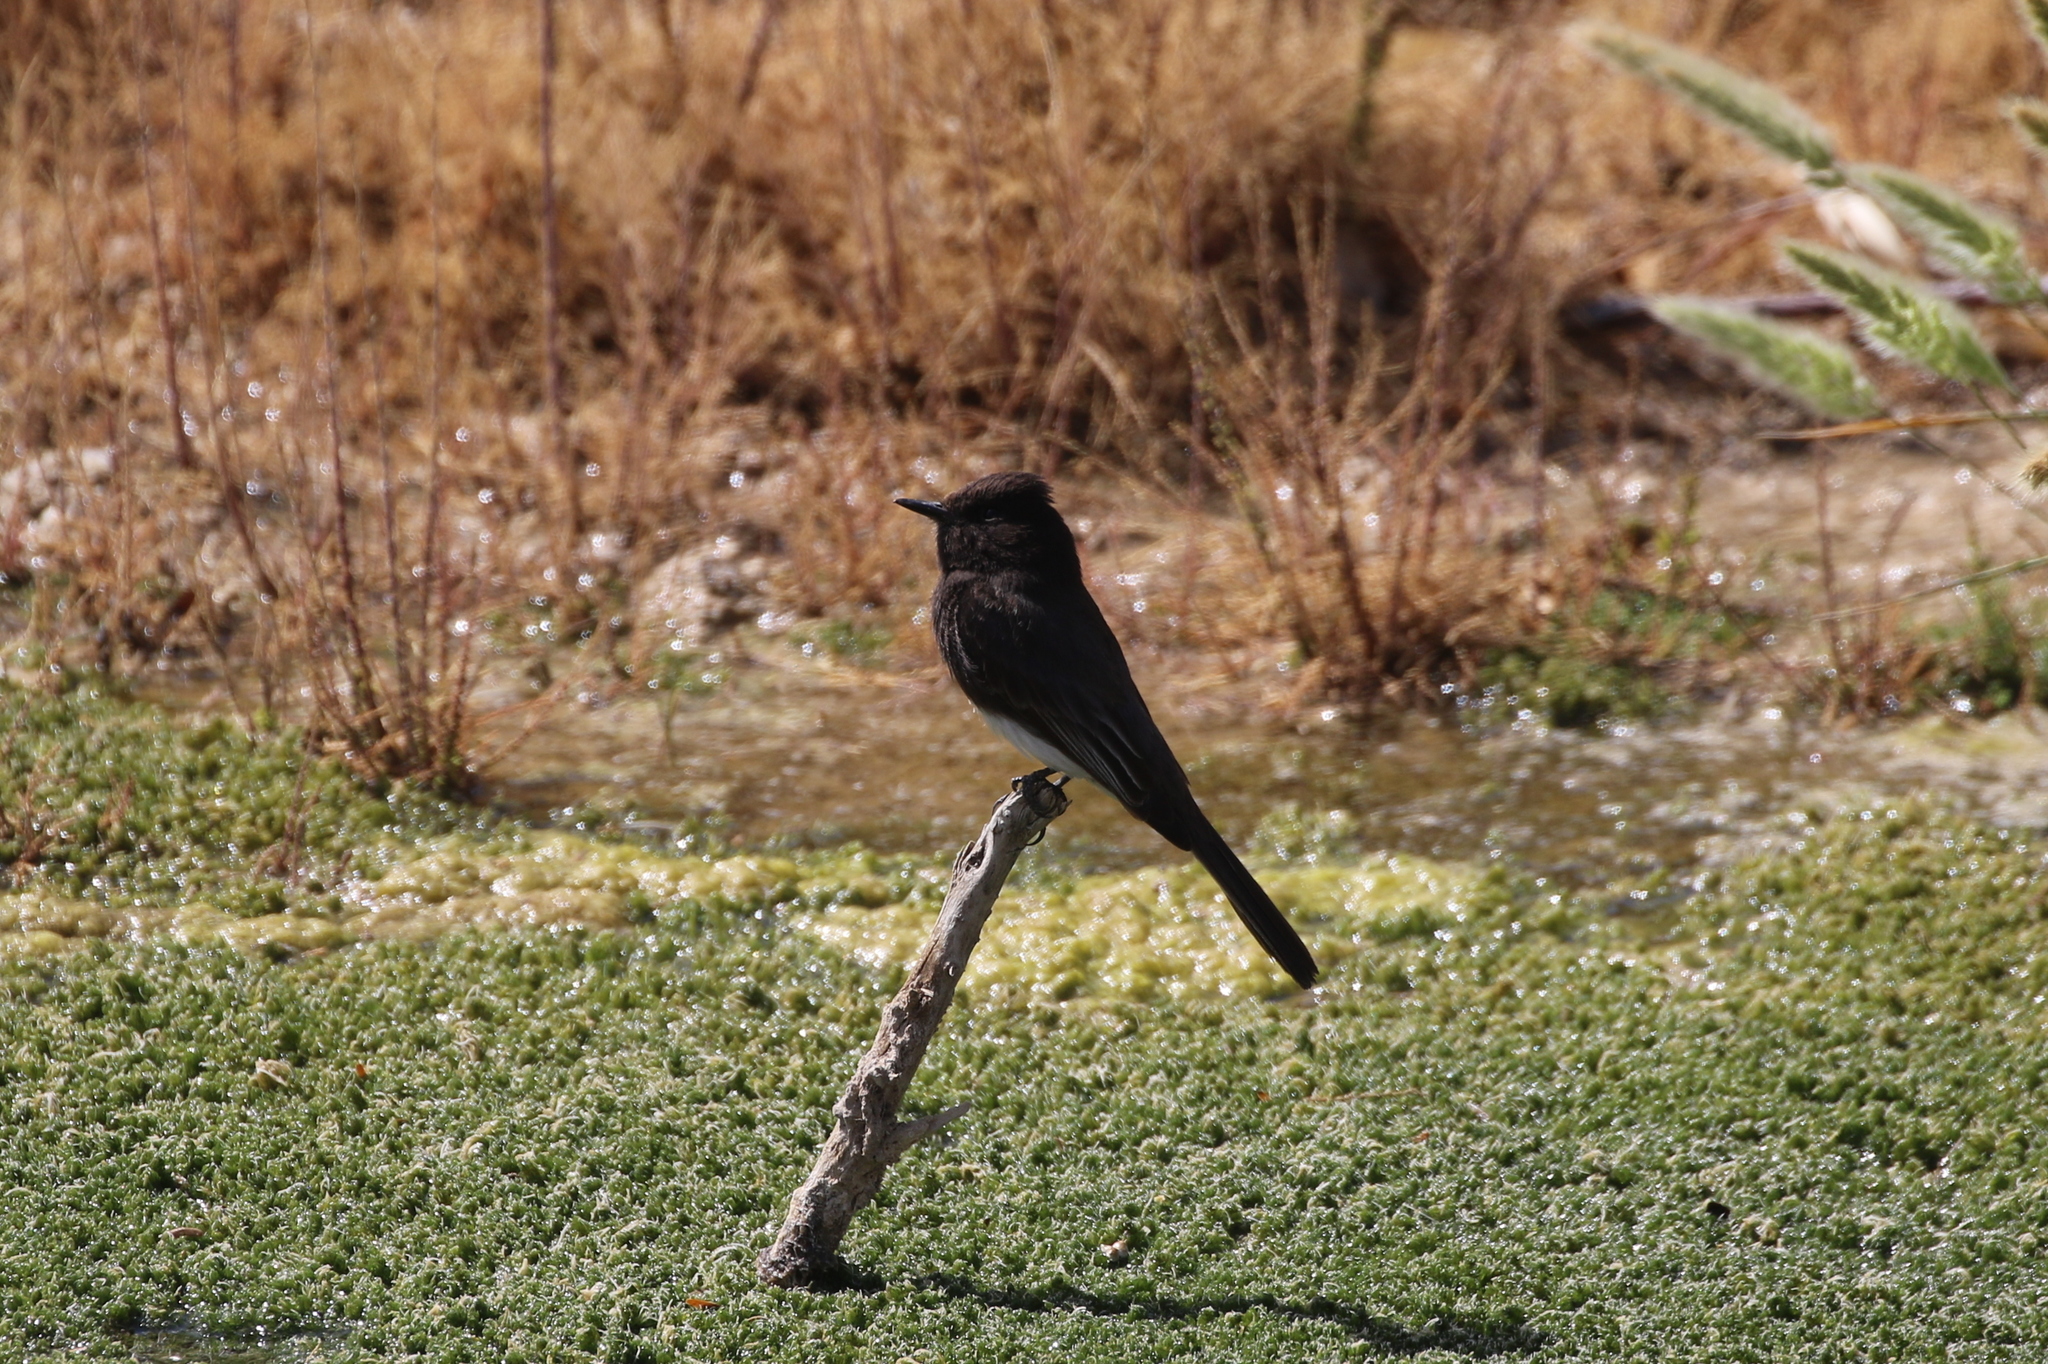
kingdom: Animalia
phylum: Chordata
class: Aves
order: Passeriformes
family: Tyrannidae
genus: Sayornis
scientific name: Sayornis nigricans
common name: Black phoebe
